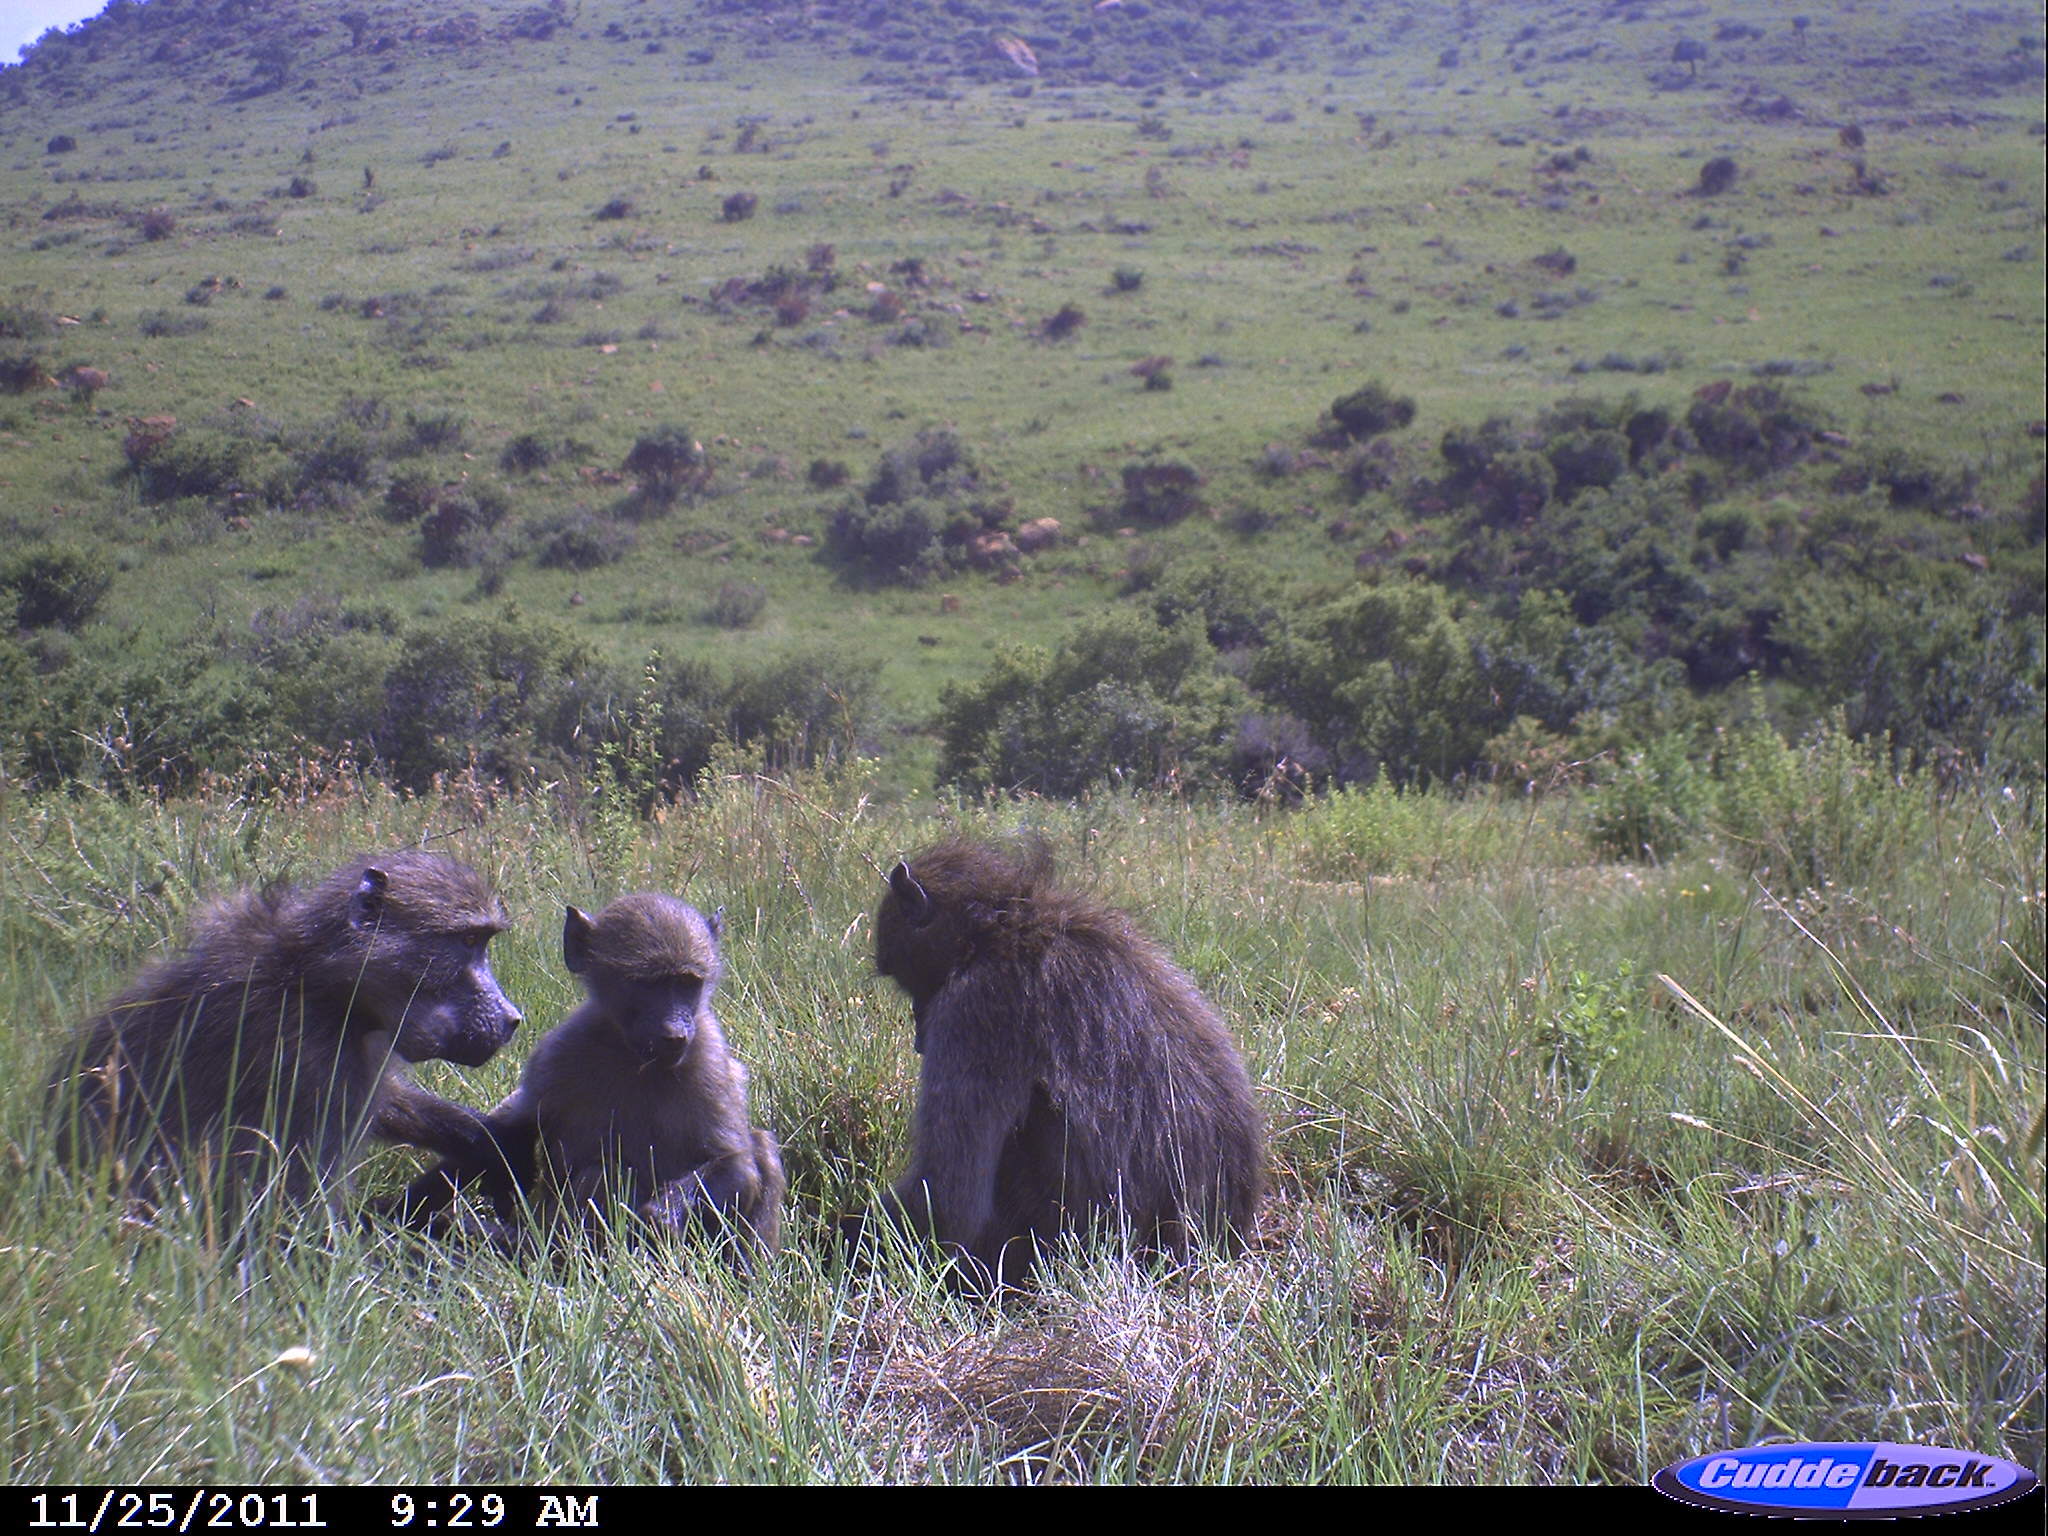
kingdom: Animalia
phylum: Chordata
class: Mammalia
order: Primates
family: Cercopithecidae
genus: Papio
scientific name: Papio ursinus
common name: Chacma baboon
